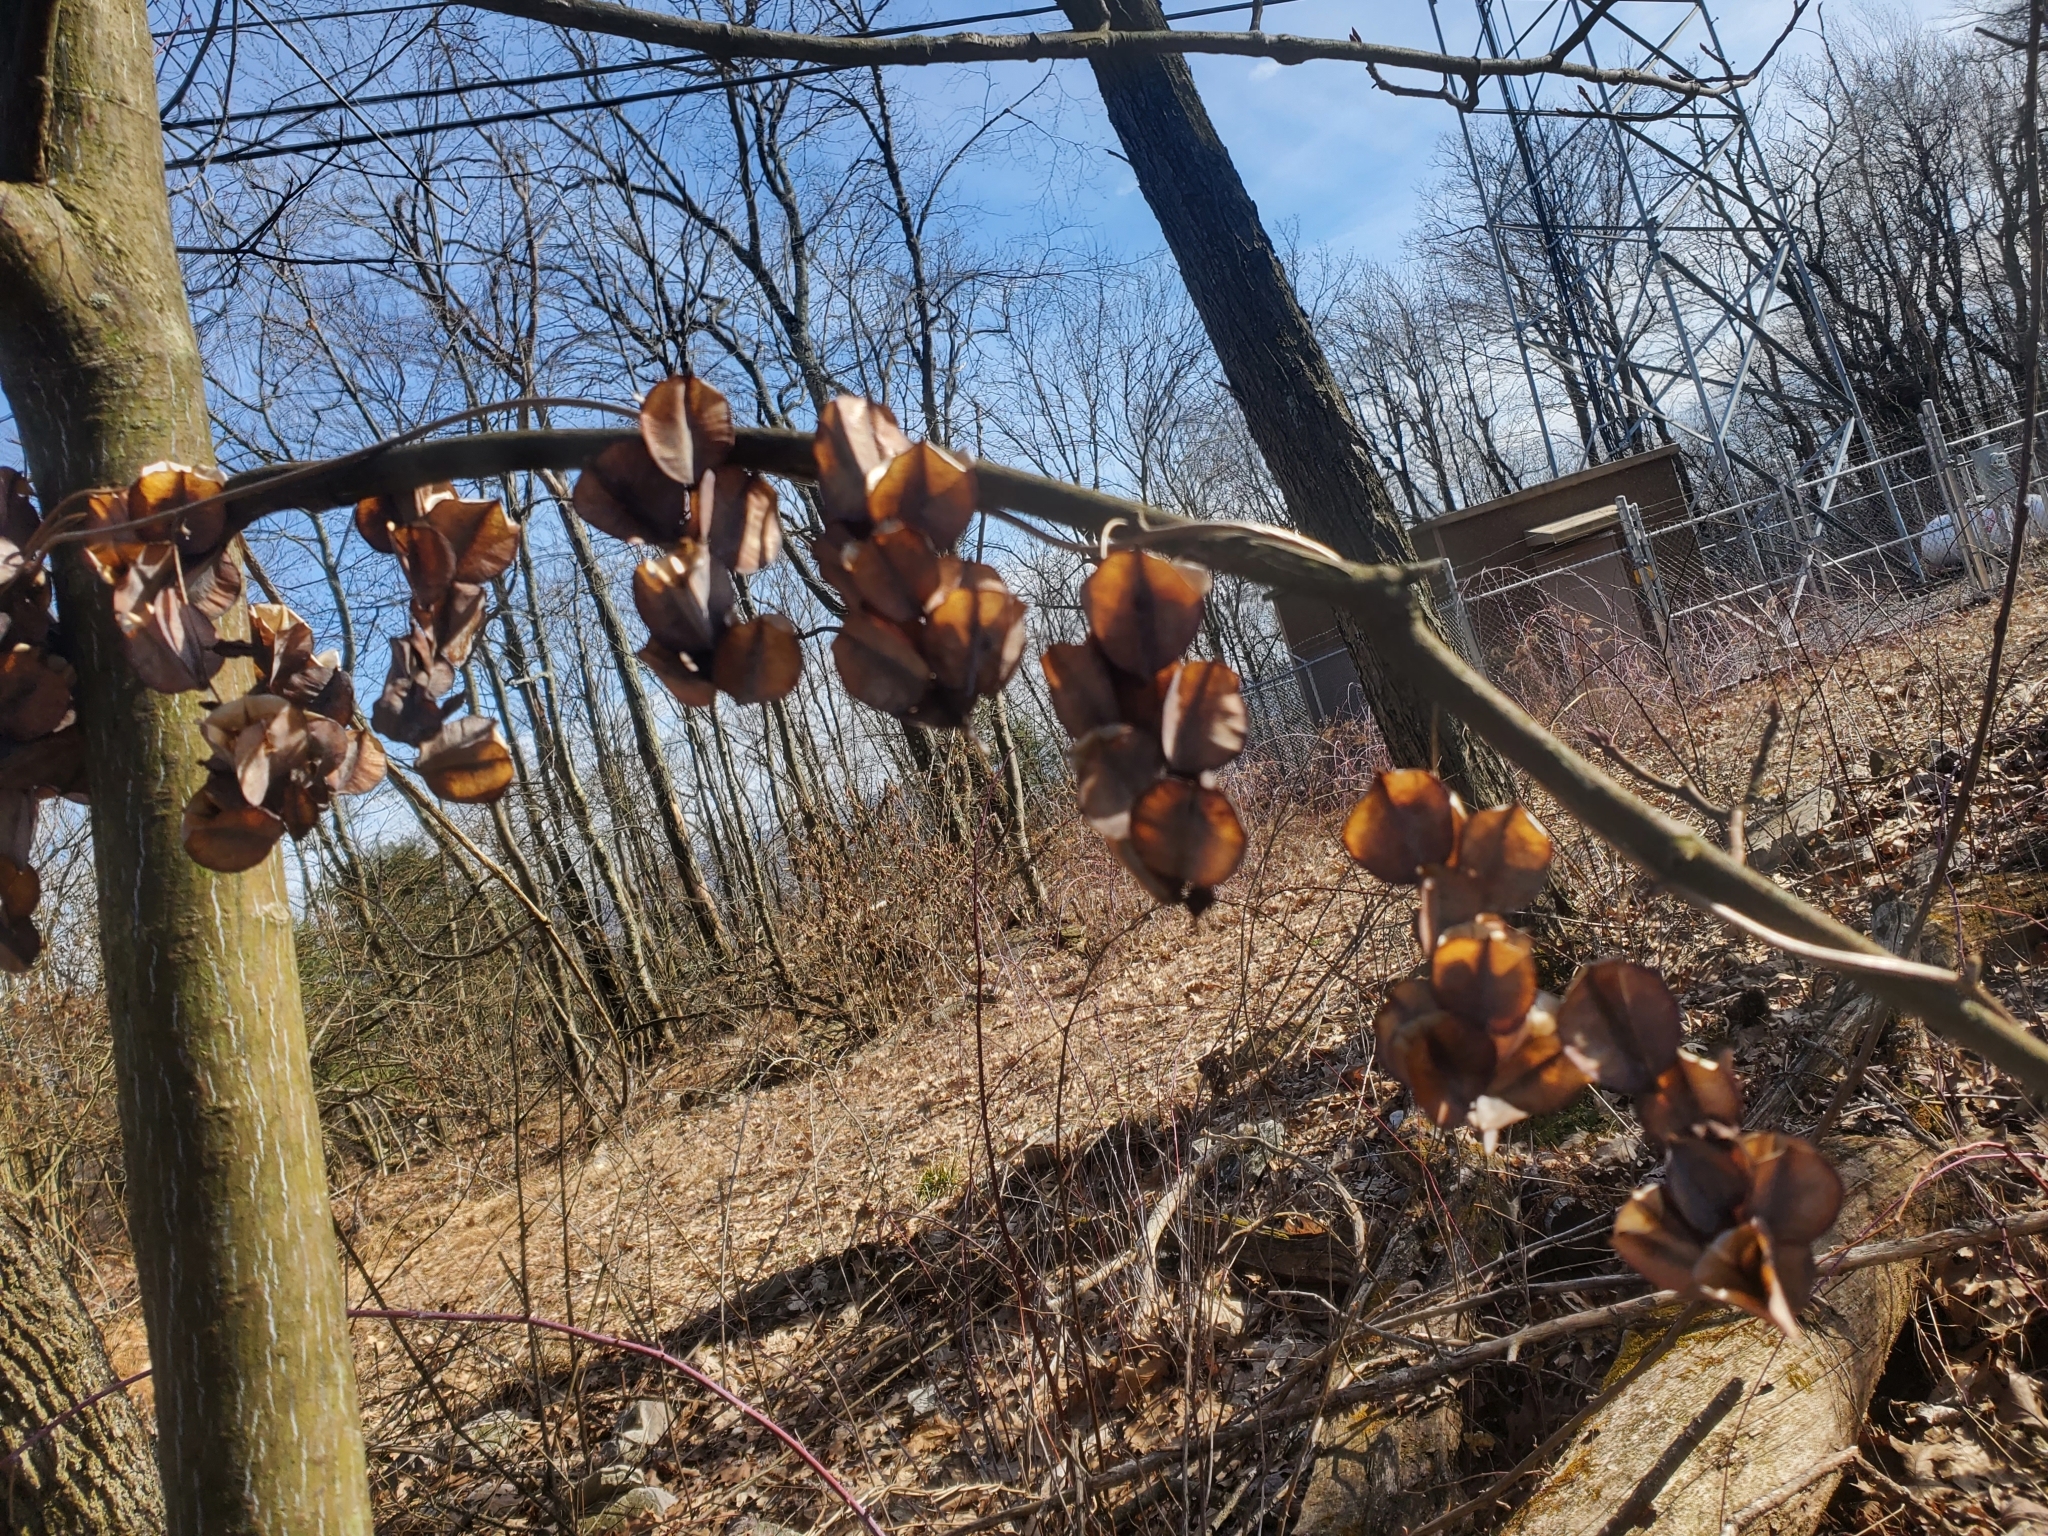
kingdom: Plantae
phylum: Tracheophyta
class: Liliopsida
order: Dioscoreales
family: Dioscoreaceae
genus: Dioscorea
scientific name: Dioscorea villosa
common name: Wild yam
